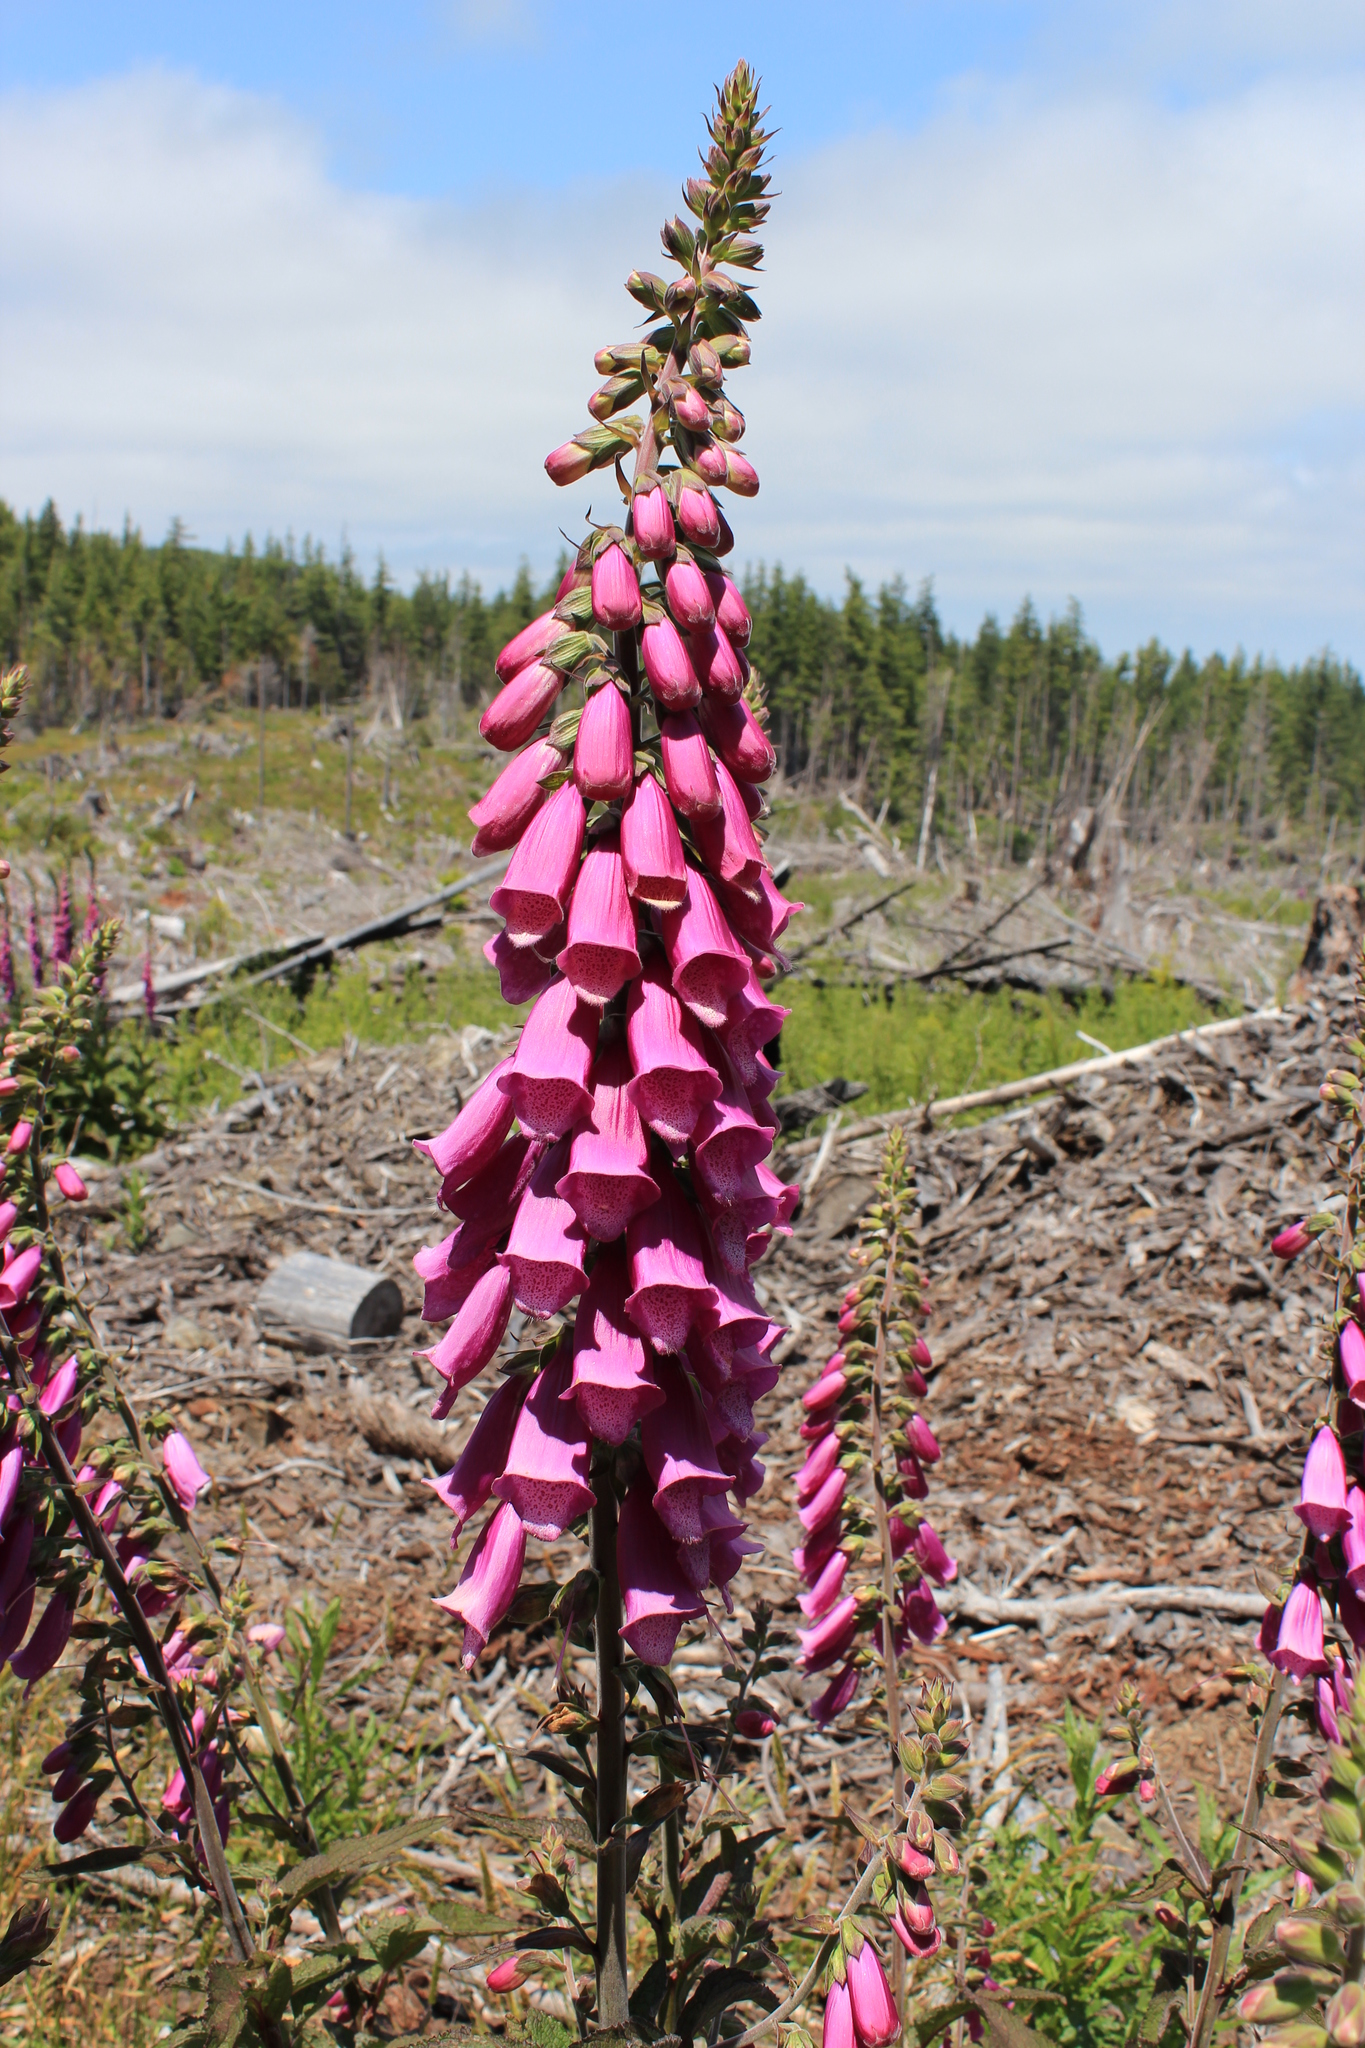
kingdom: Plantae
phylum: Tracheophyta
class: Magnoliopsida
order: Lamiales
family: Plantaginaceae
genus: Digitalis
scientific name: Digitalis purpurea
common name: Foxglove
